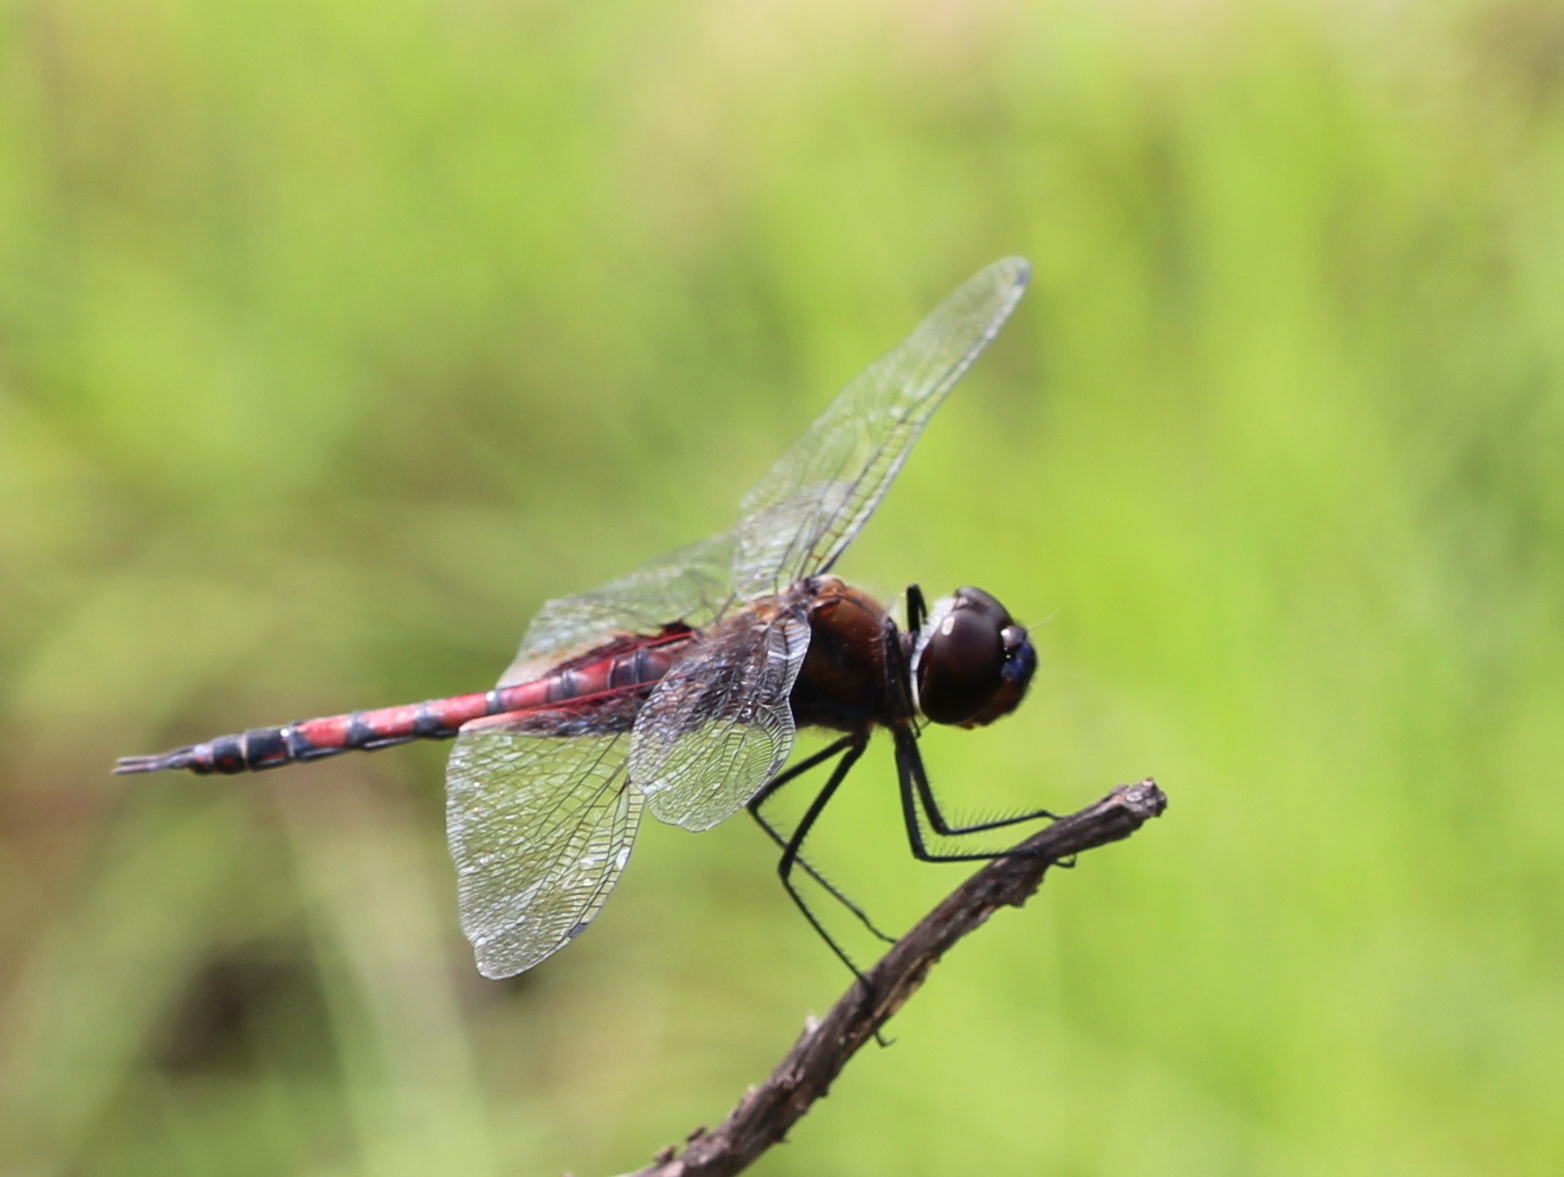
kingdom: Animalia
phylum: Arthropoda
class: Insecta
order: Odonata
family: Libellulidae
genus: Tramea
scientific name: Tramea limbata
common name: Ferruginous glider
